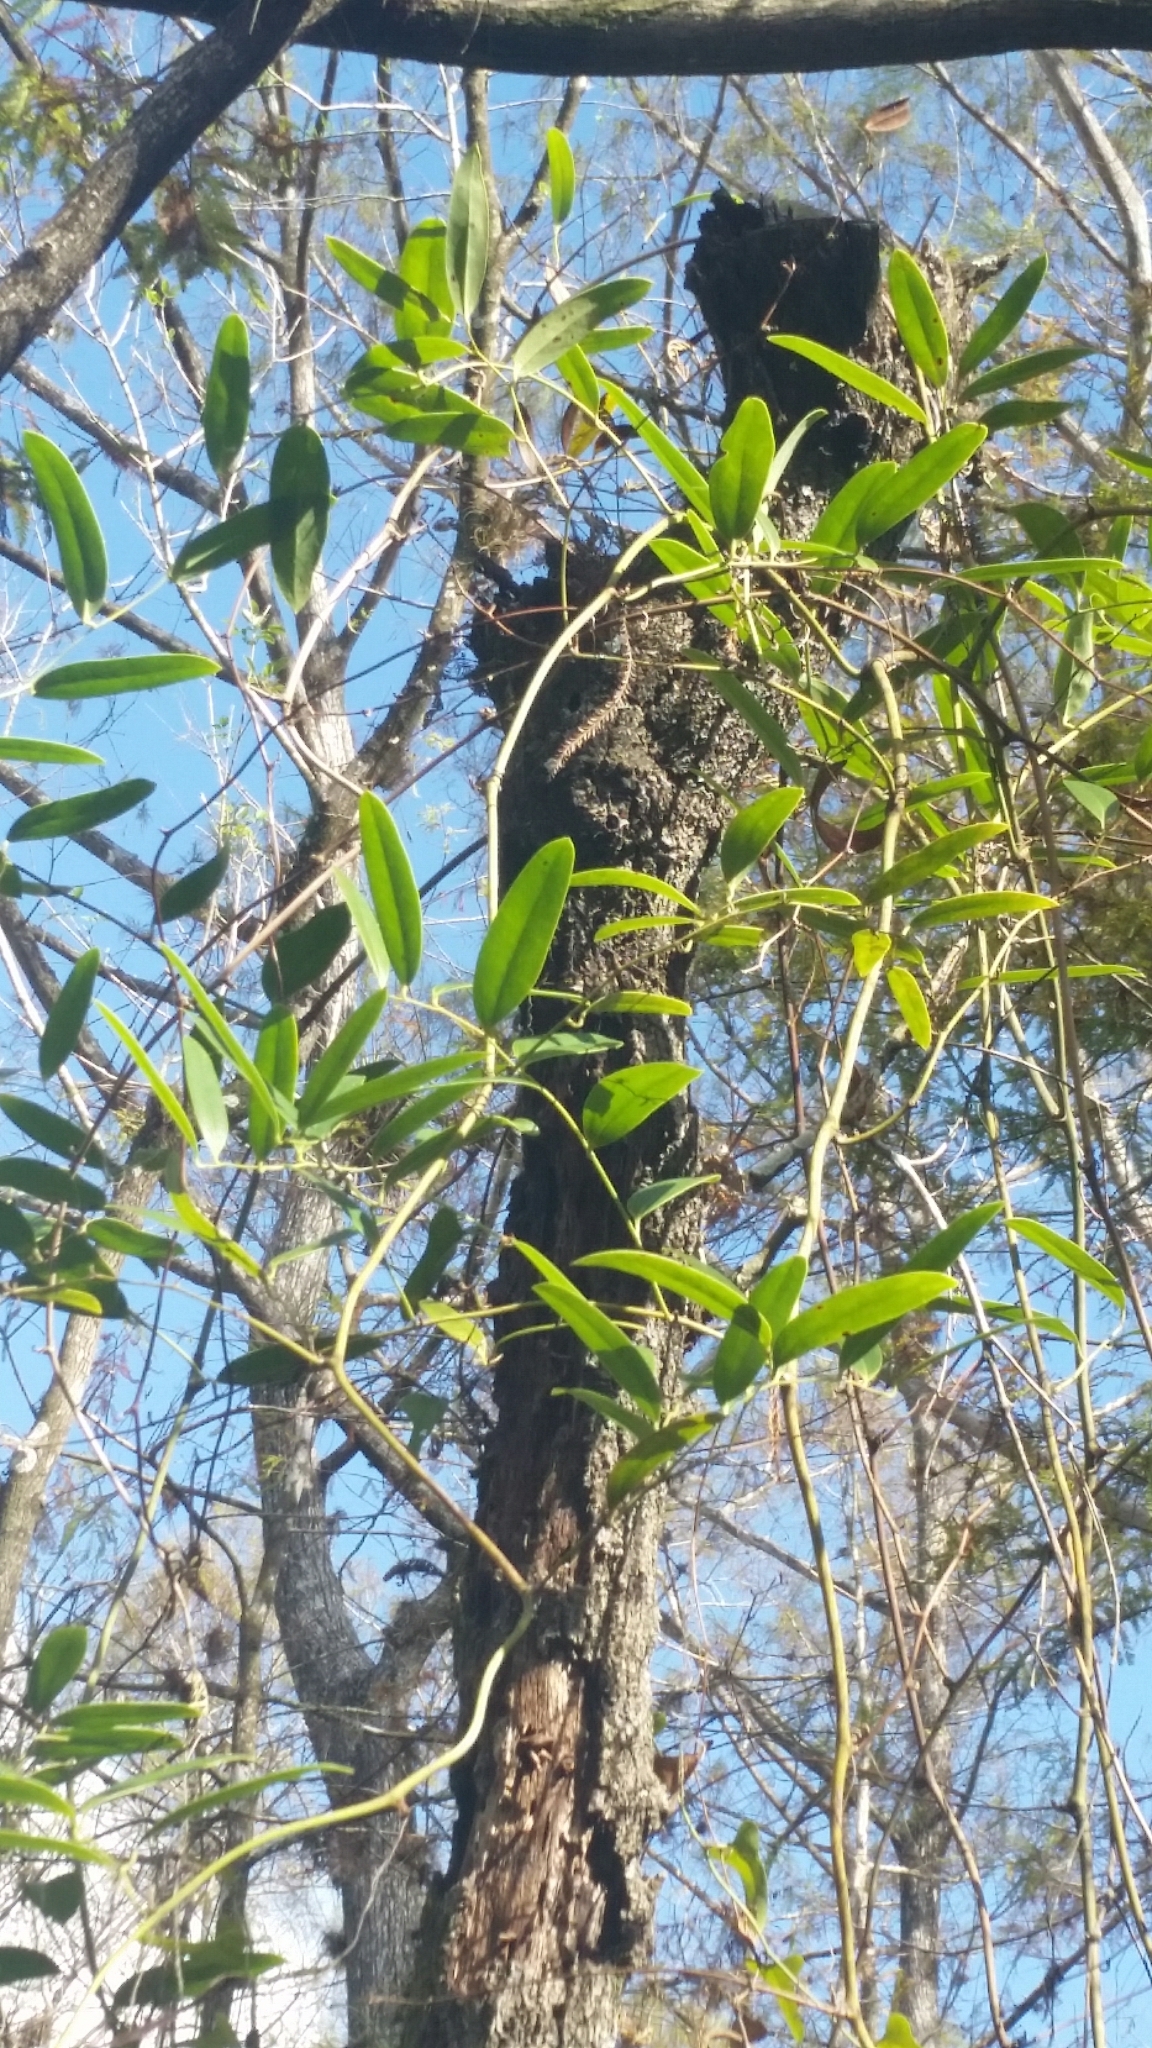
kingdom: Plantae
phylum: Tracheophyta
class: Liliopsida
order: Liliales
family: Smilacaceae
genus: Smilax
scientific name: Smilax laurifolia
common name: Bamboovine
